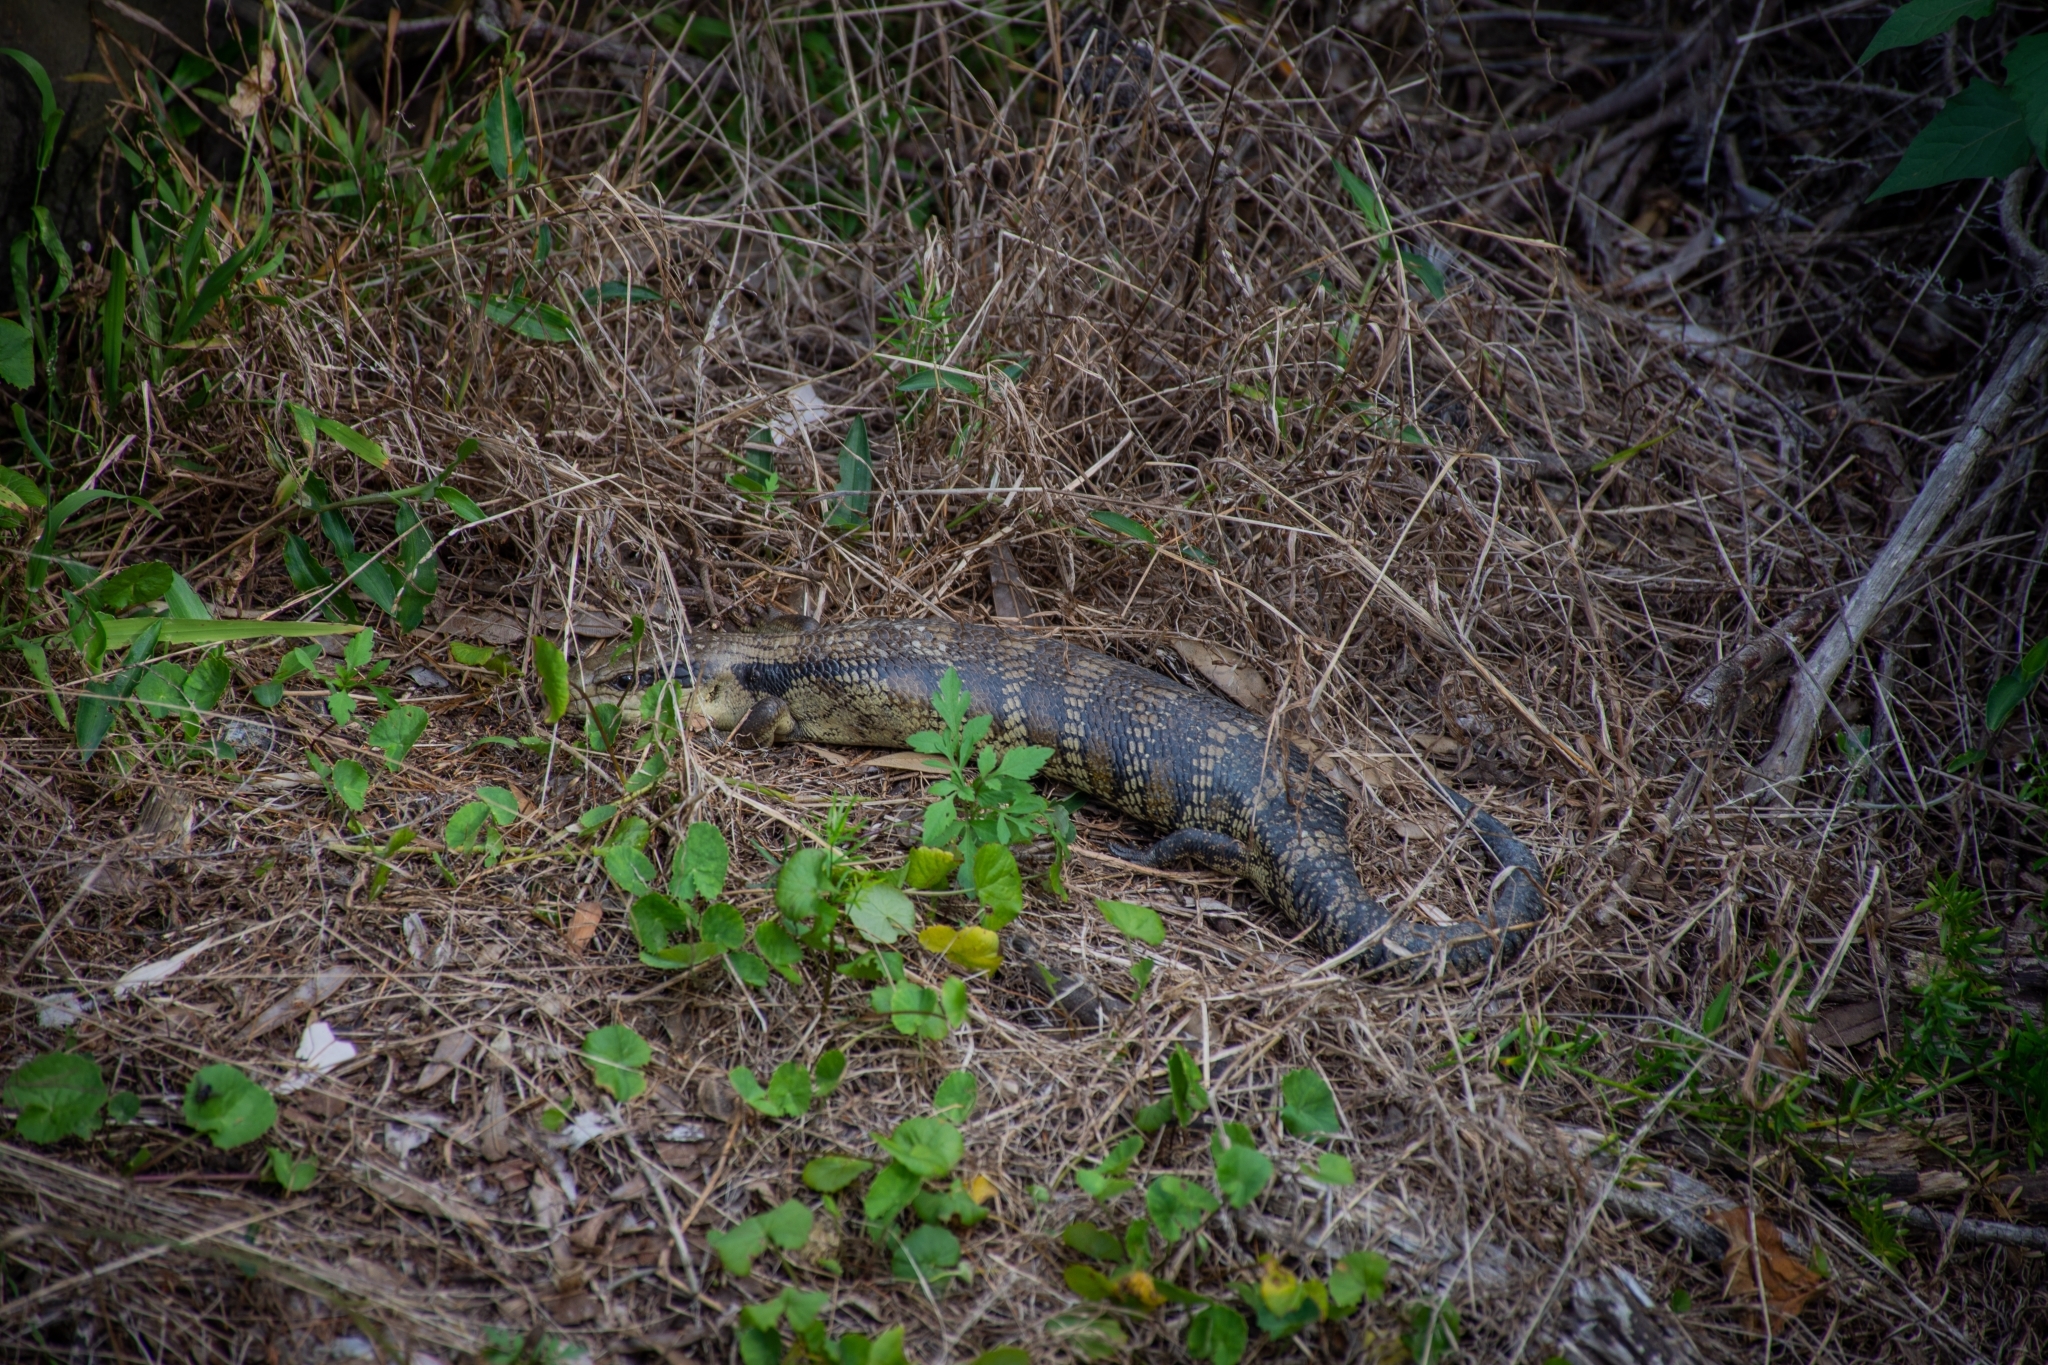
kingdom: Animalia
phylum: Chordata
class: Squamata
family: Scincidae
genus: Tiliqua
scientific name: Tiliqua scincoides
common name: Common bluetongue
